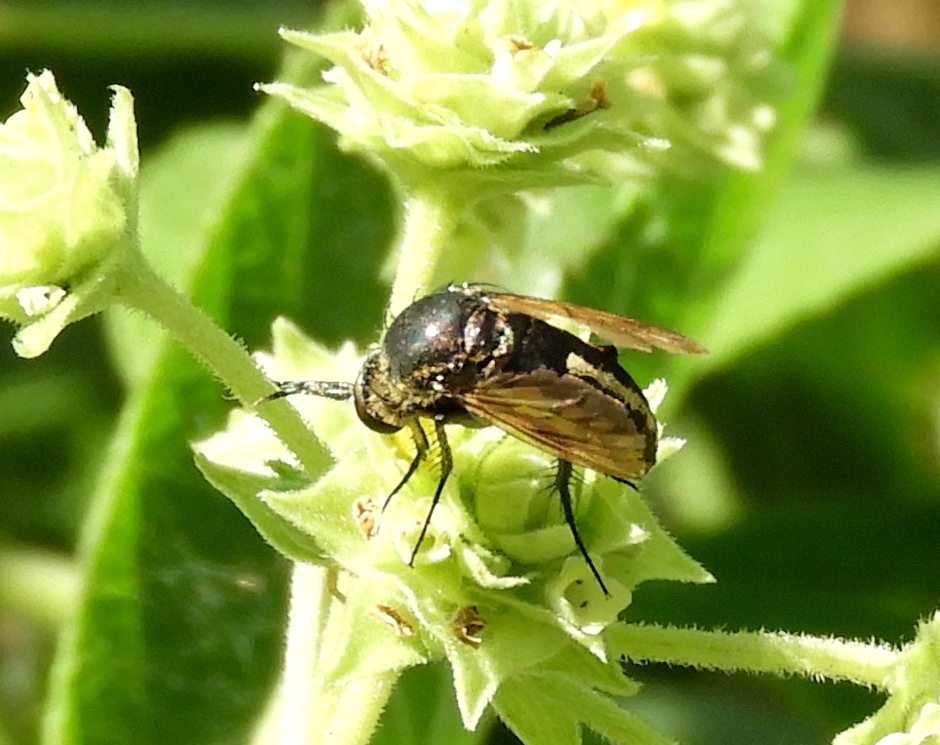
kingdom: Animalia
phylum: Arthropoda
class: Insecta
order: Diptera
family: Bombyliidae
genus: Toxophora
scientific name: Toxophora virgata
